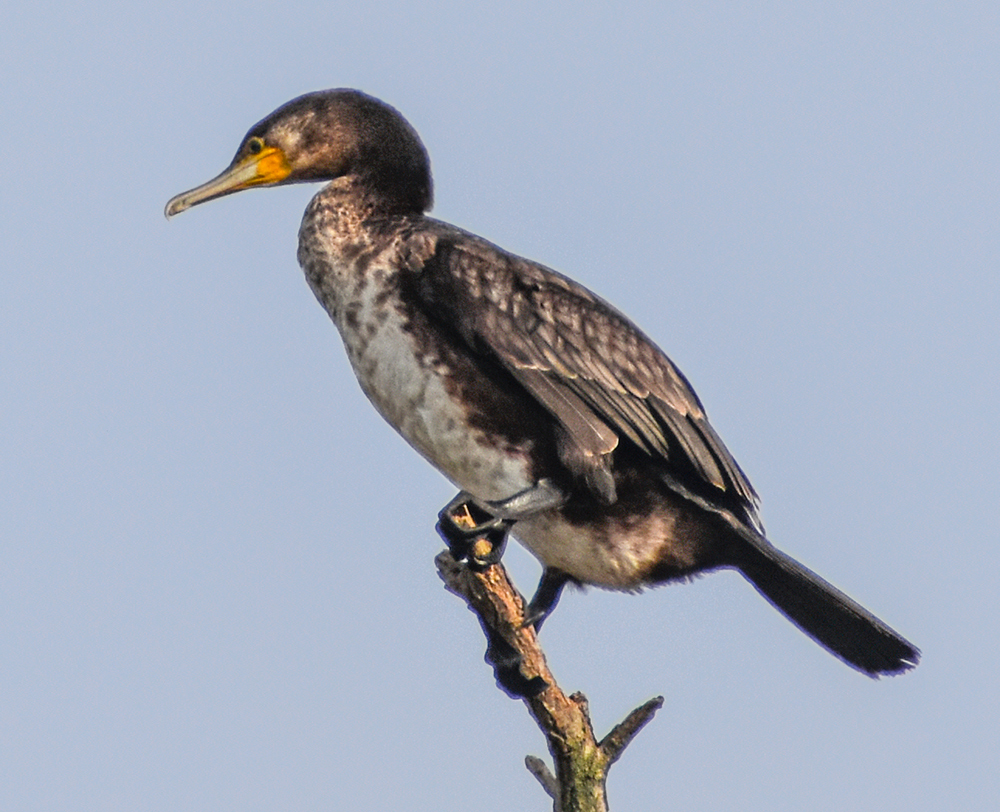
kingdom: Animalia
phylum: Chordata
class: Aves
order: Suliformes
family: Phalacrocoracidae
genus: Phalacrocorax
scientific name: Phalacrocorax carbo
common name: Great cormorant
